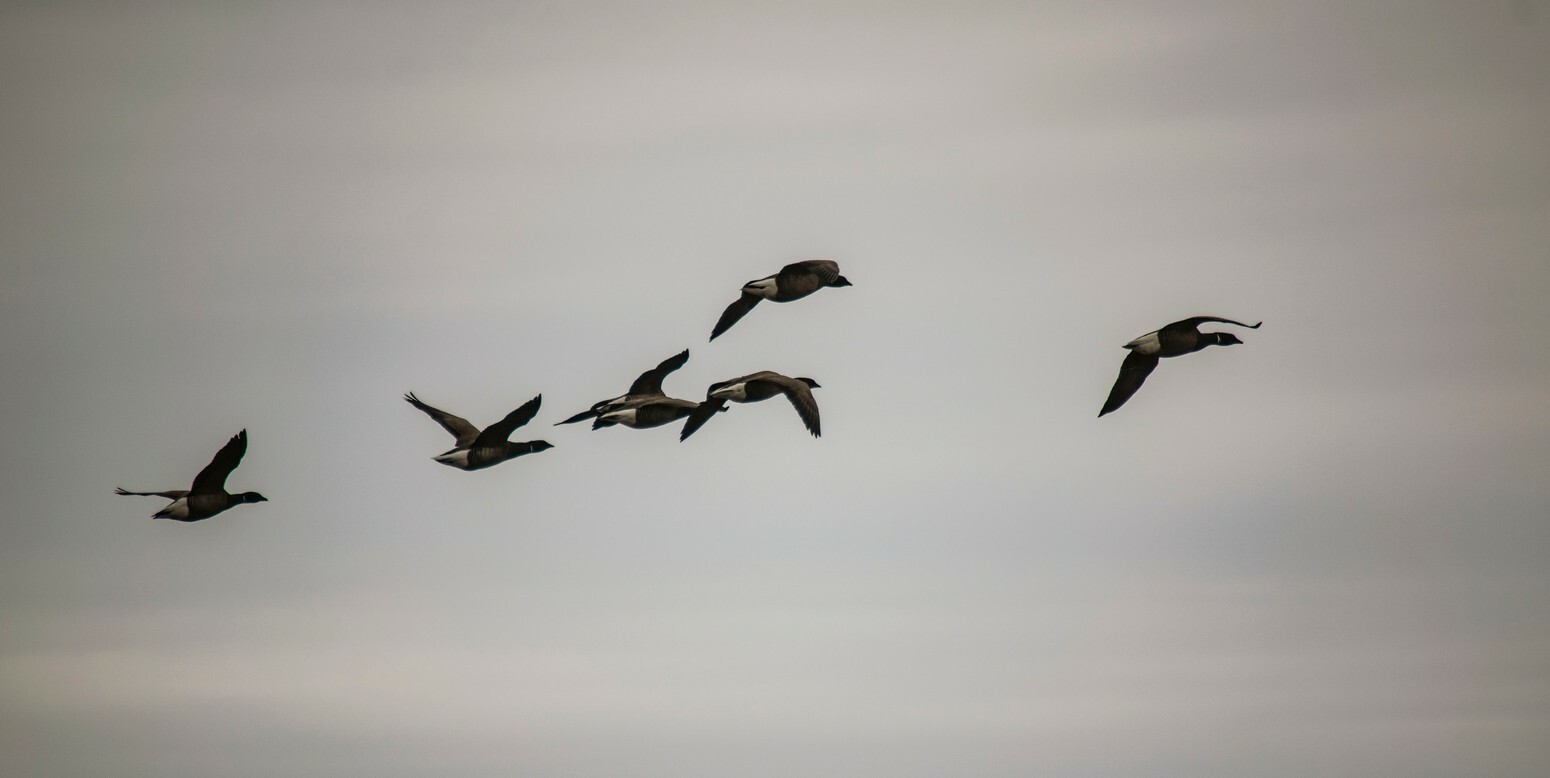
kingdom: Animalia
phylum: Chordata
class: Aves
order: Anseriformes
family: Anatidae
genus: Branta
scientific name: Branta bernicla
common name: Brant goose
